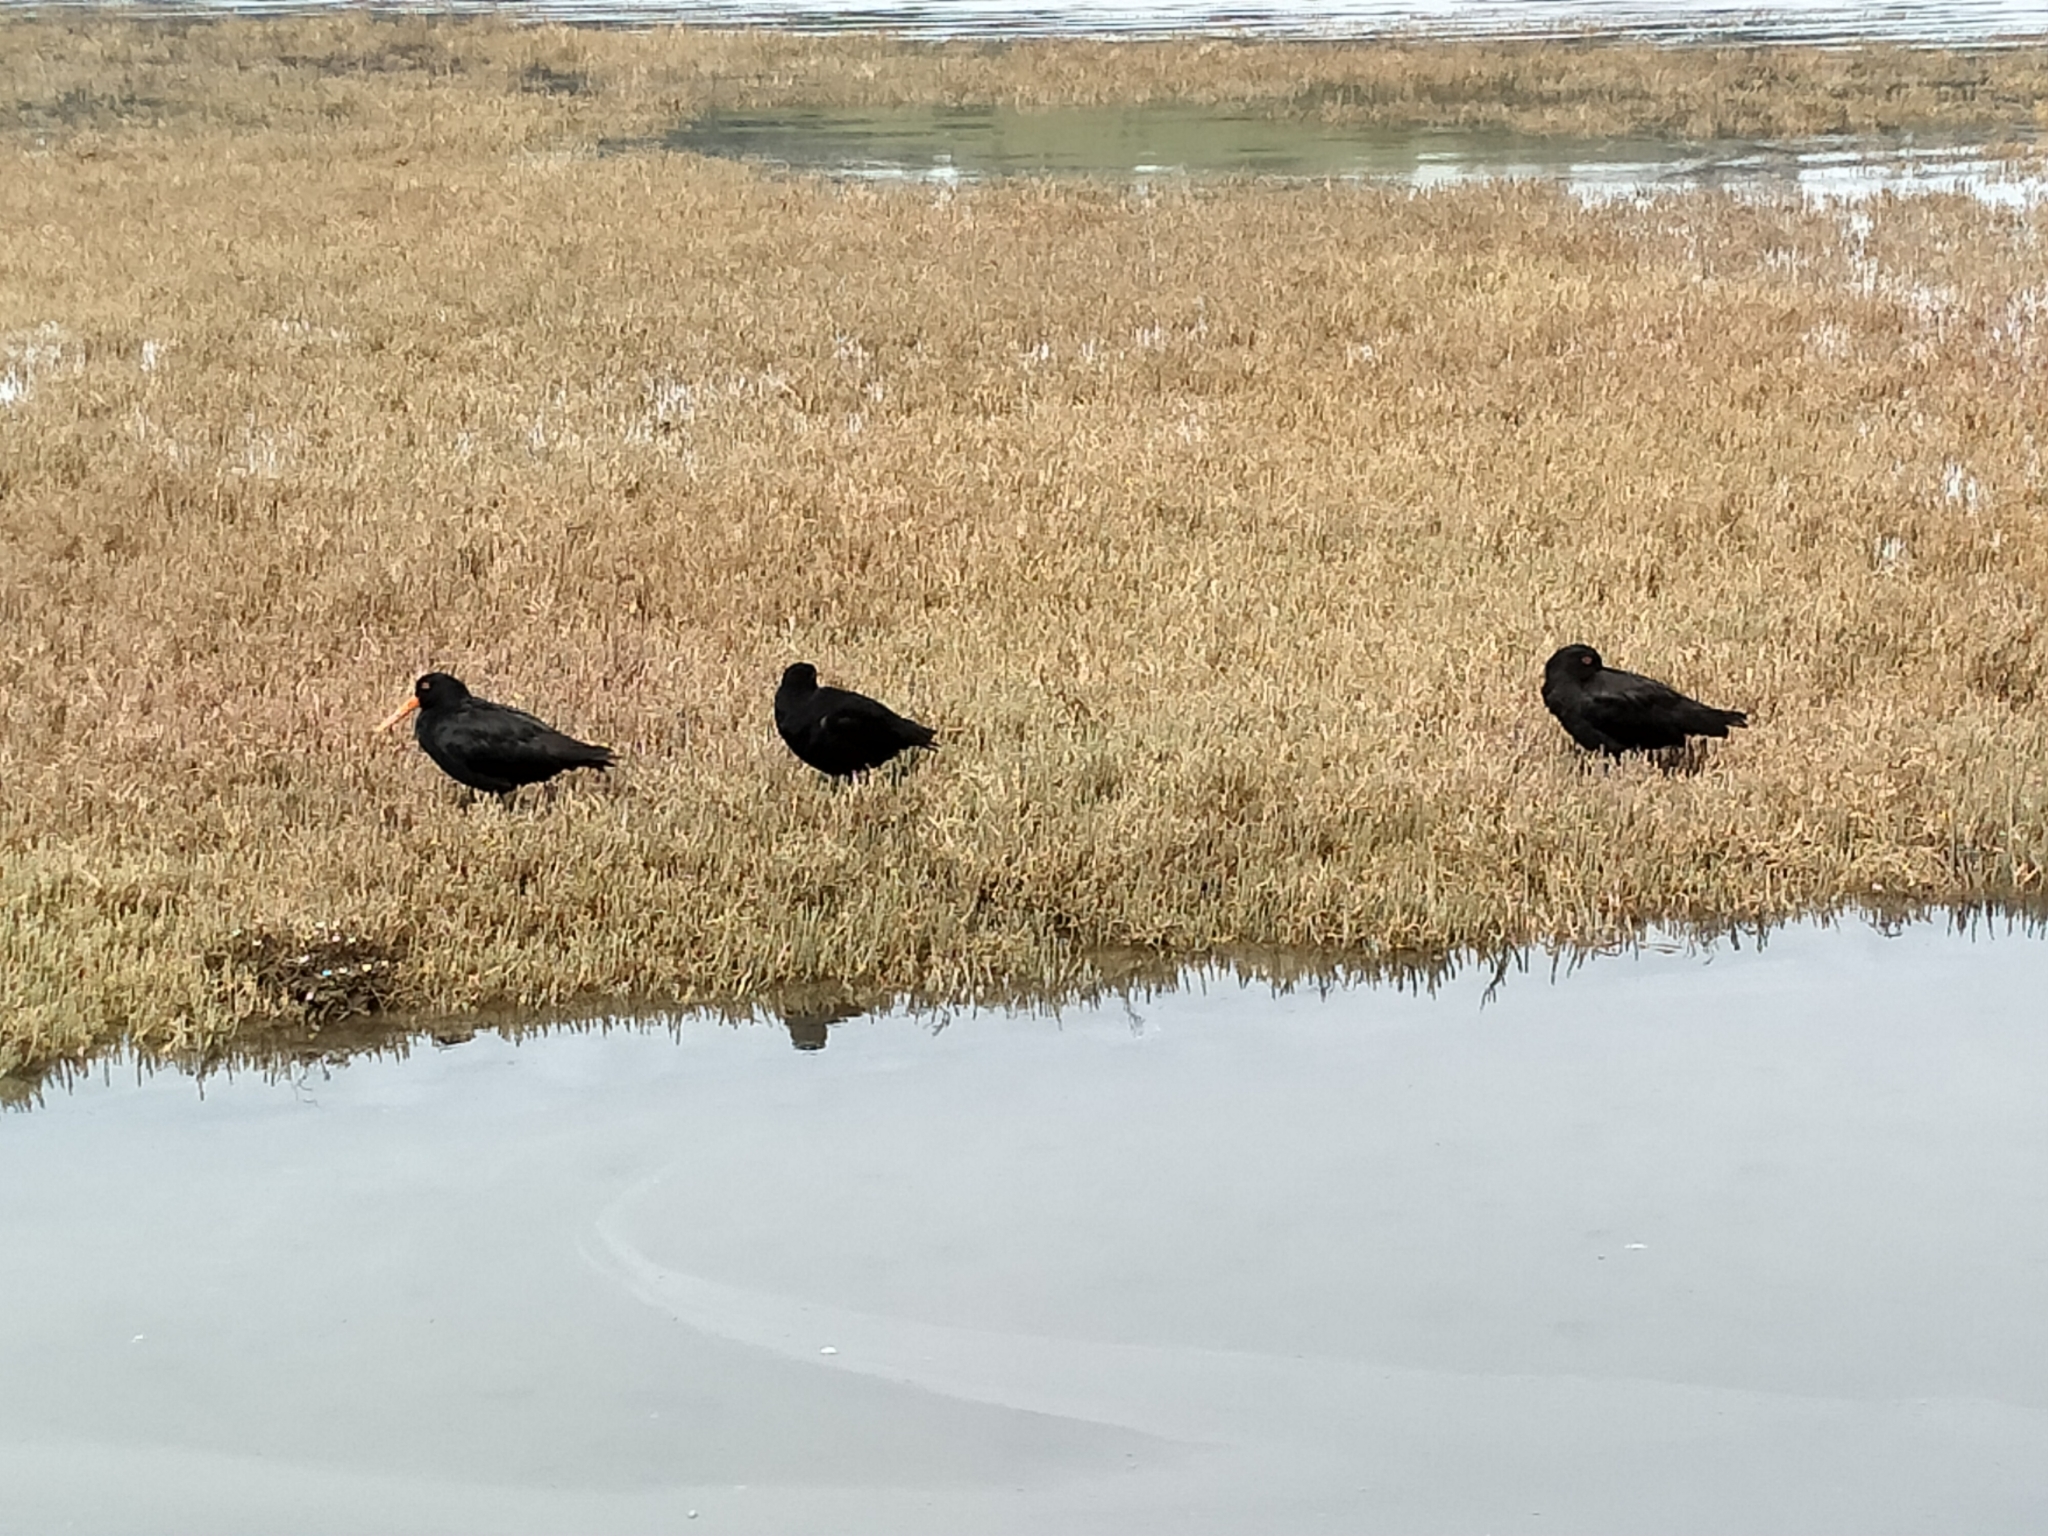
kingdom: Animalia
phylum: Chordata
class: Aves
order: Charadriiformes
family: Haematopodidae
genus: Haematopus
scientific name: Haematopus unicolor
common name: Variable oystercatcher
